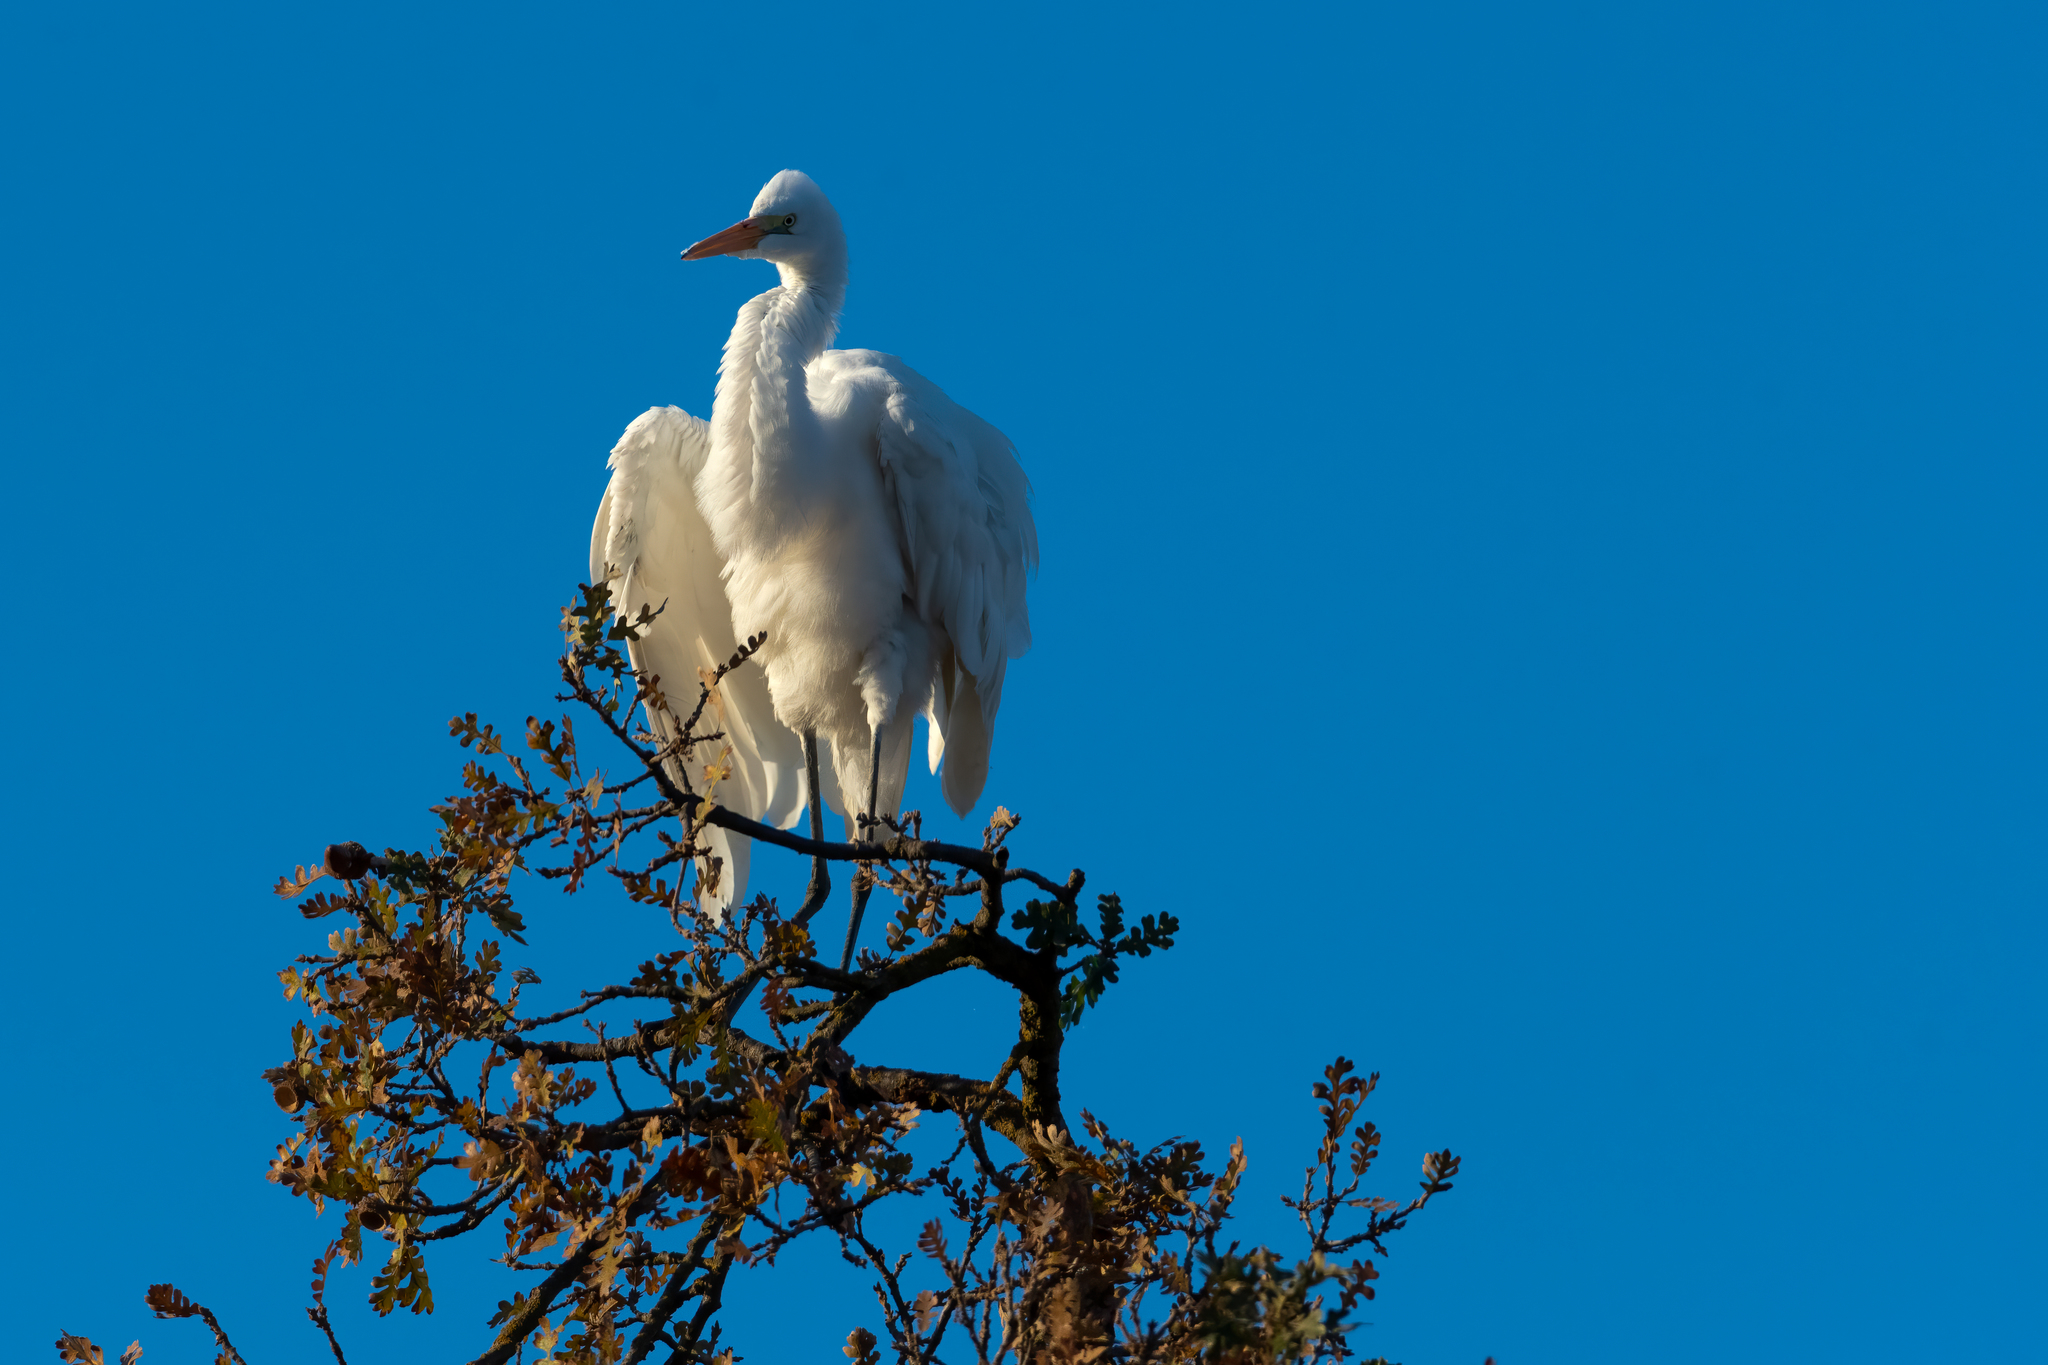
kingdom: Animalia
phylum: Chordata
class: Aves
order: Pelecaniformes
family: Ardeidae
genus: Ardea
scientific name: Ardea alba
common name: Great egret
